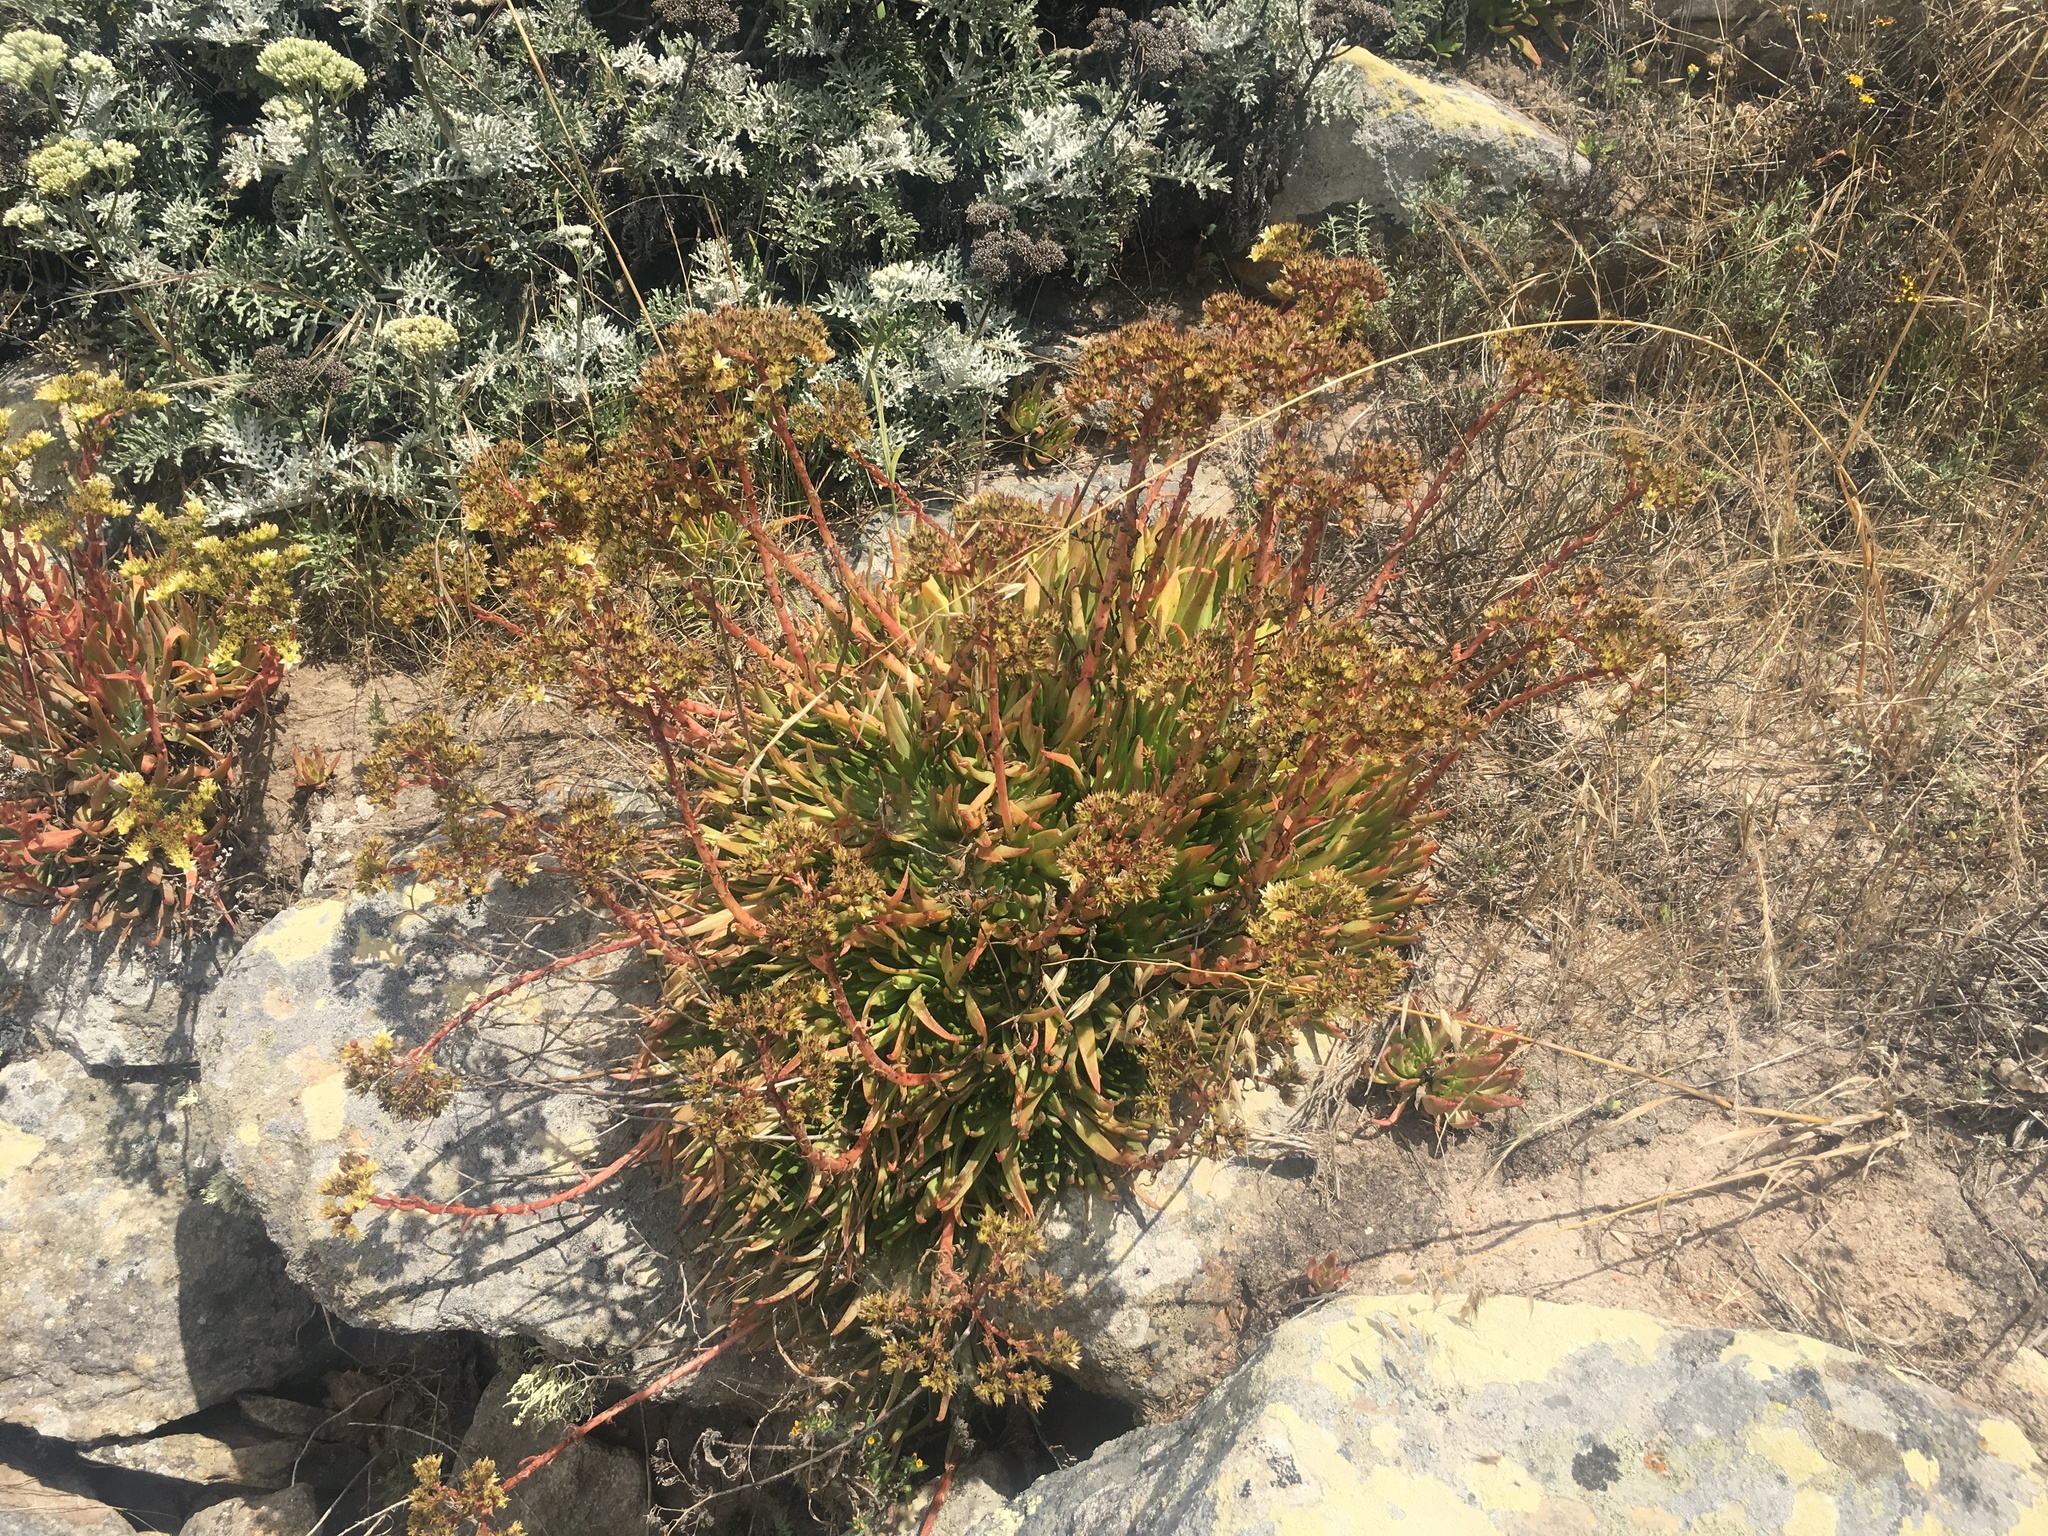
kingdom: Plantae
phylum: Tracheophyta
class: Magnoliopsida
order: Saxifragales
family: Crassulaceae
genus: Dudleya
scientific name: Dudleya virens
